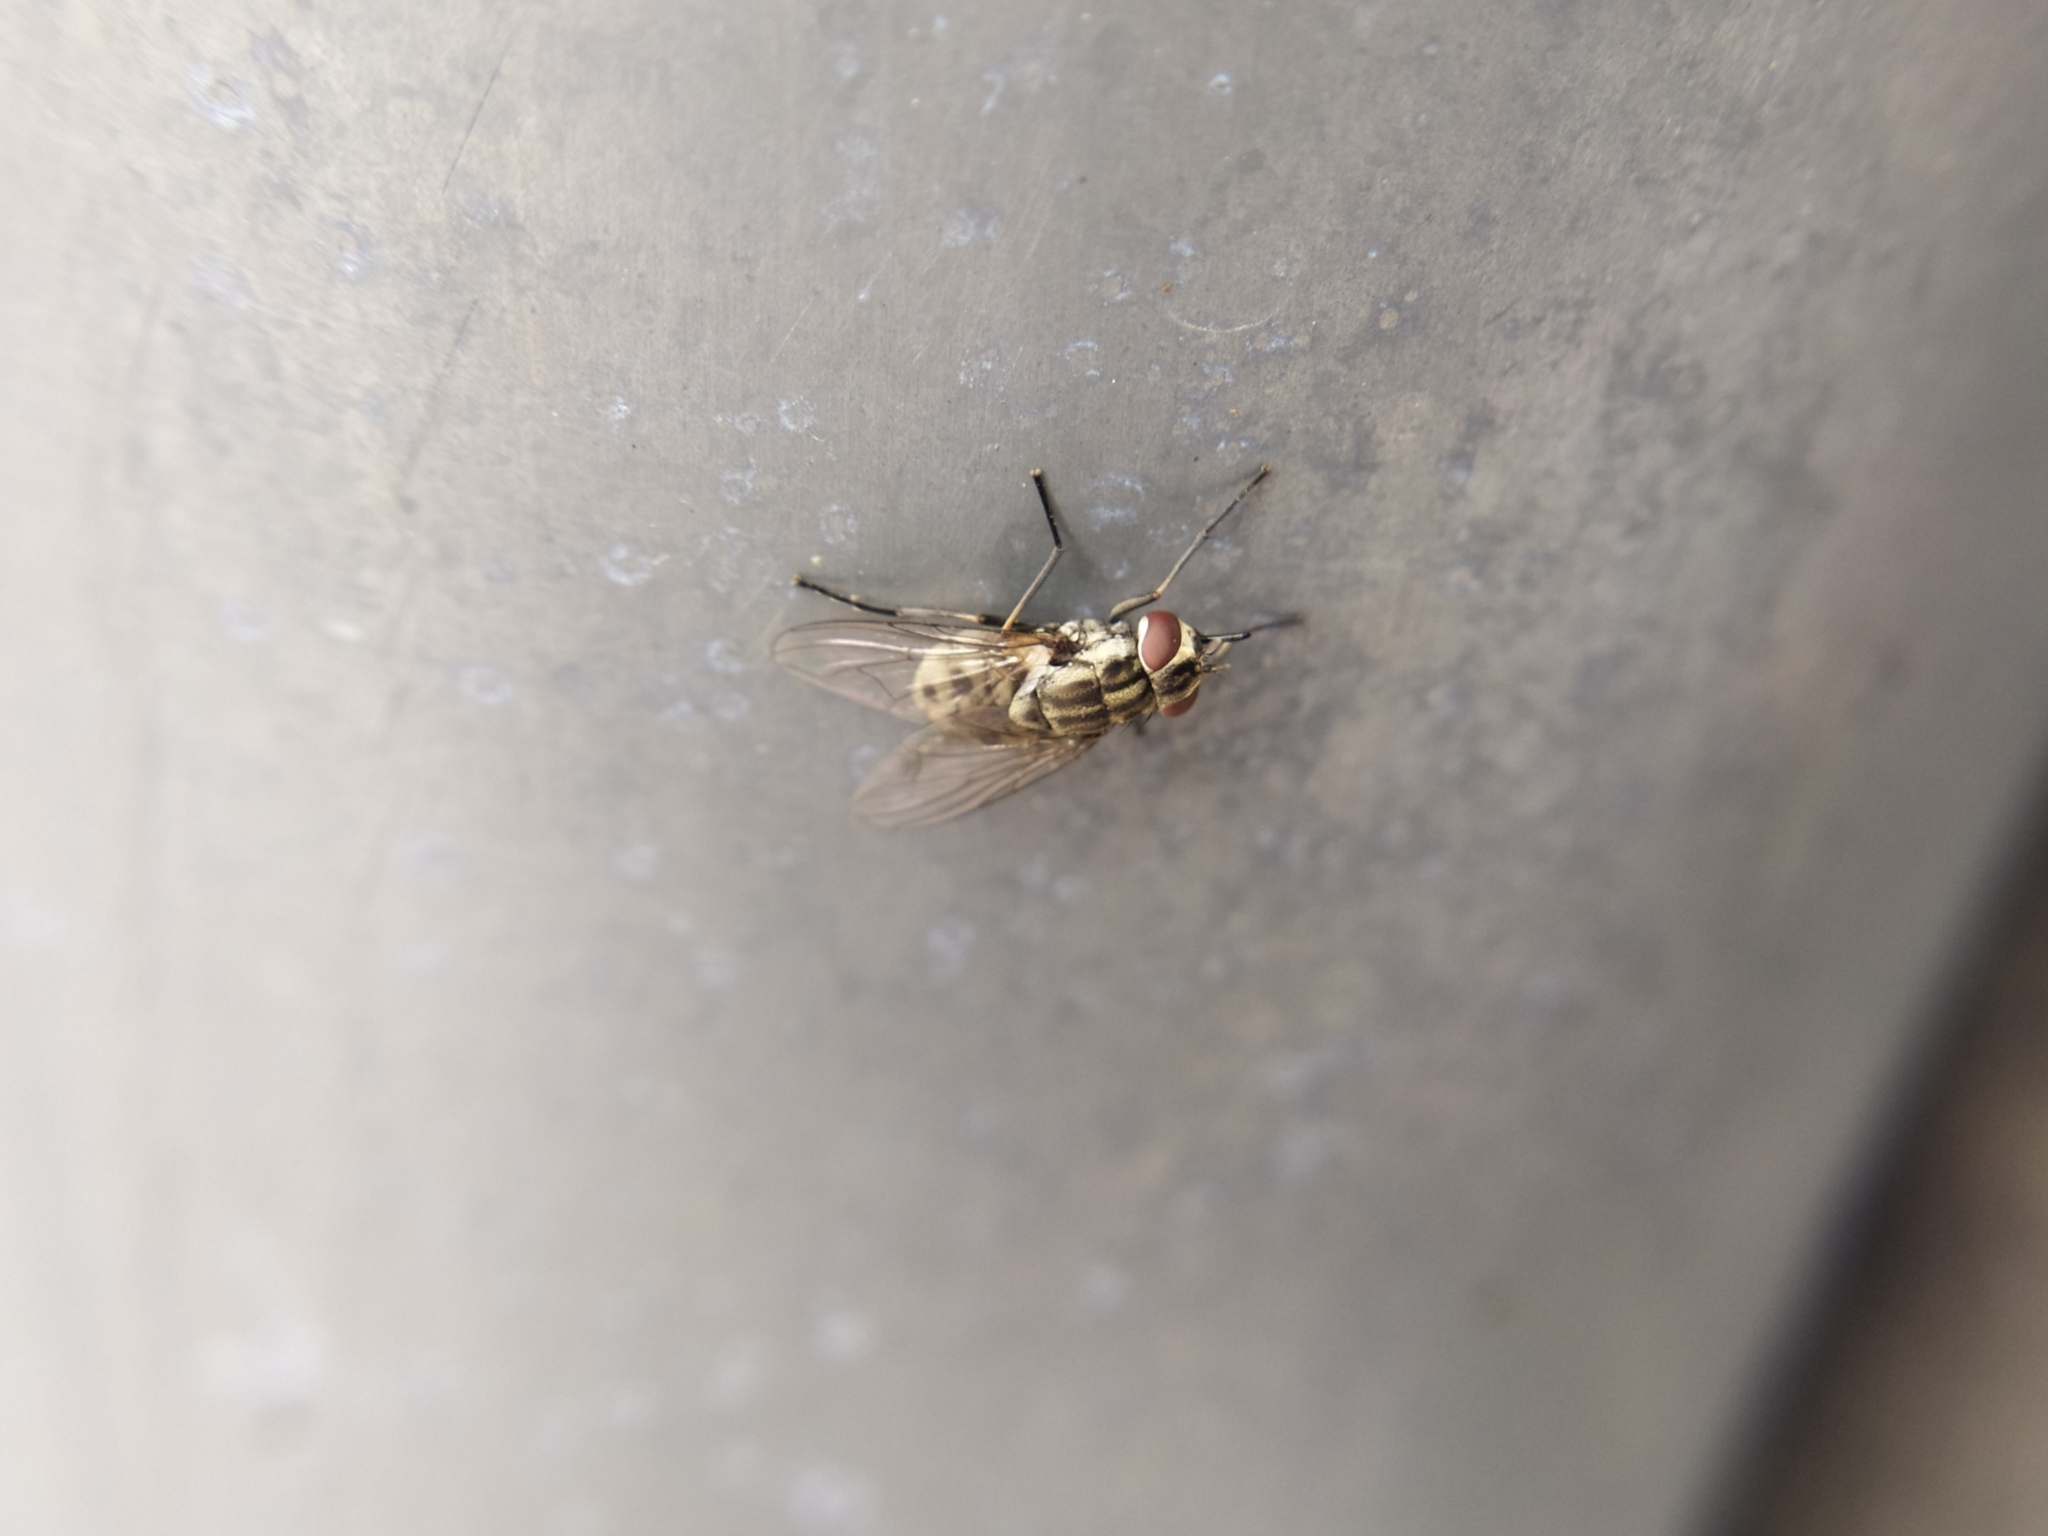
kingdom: Animalia
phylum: Arthropoda
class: Insecta
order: Diptera
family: Muscidae
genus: Stomoxys
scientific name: Stomoxys calcitrans
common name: Stable fly
